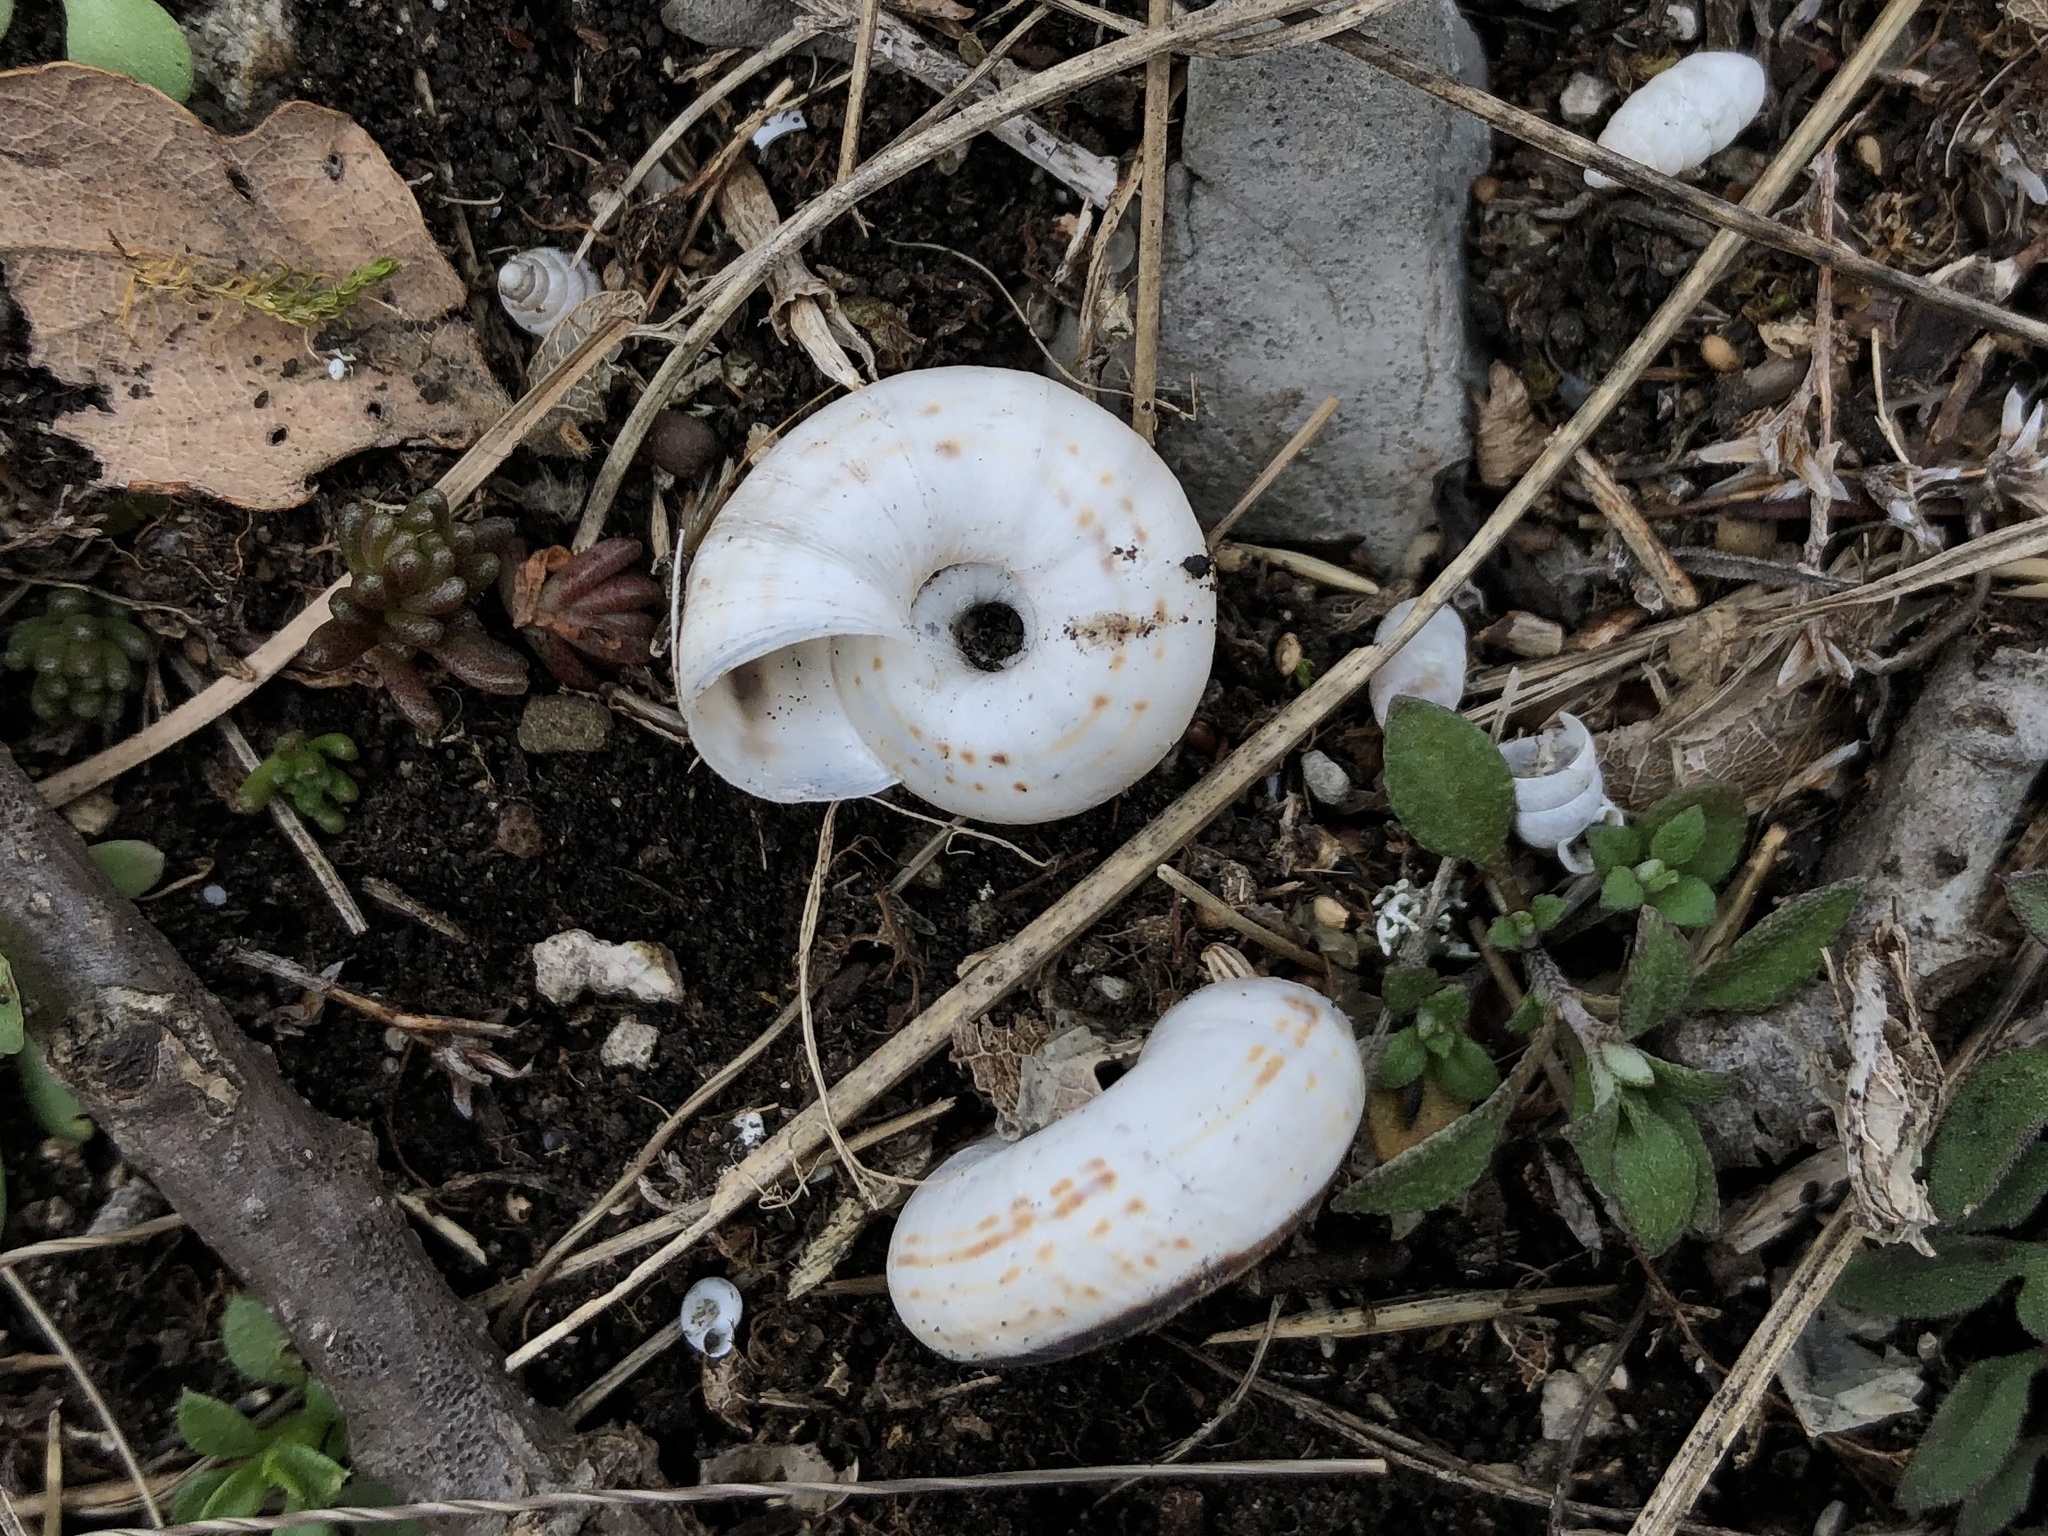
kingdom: Animalia
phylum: Mollusca
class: Gastropoda
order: Stylommatophora
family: Geomitridae
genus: Xerolenta
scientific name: Xerolenta obvia
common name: White heath snail
